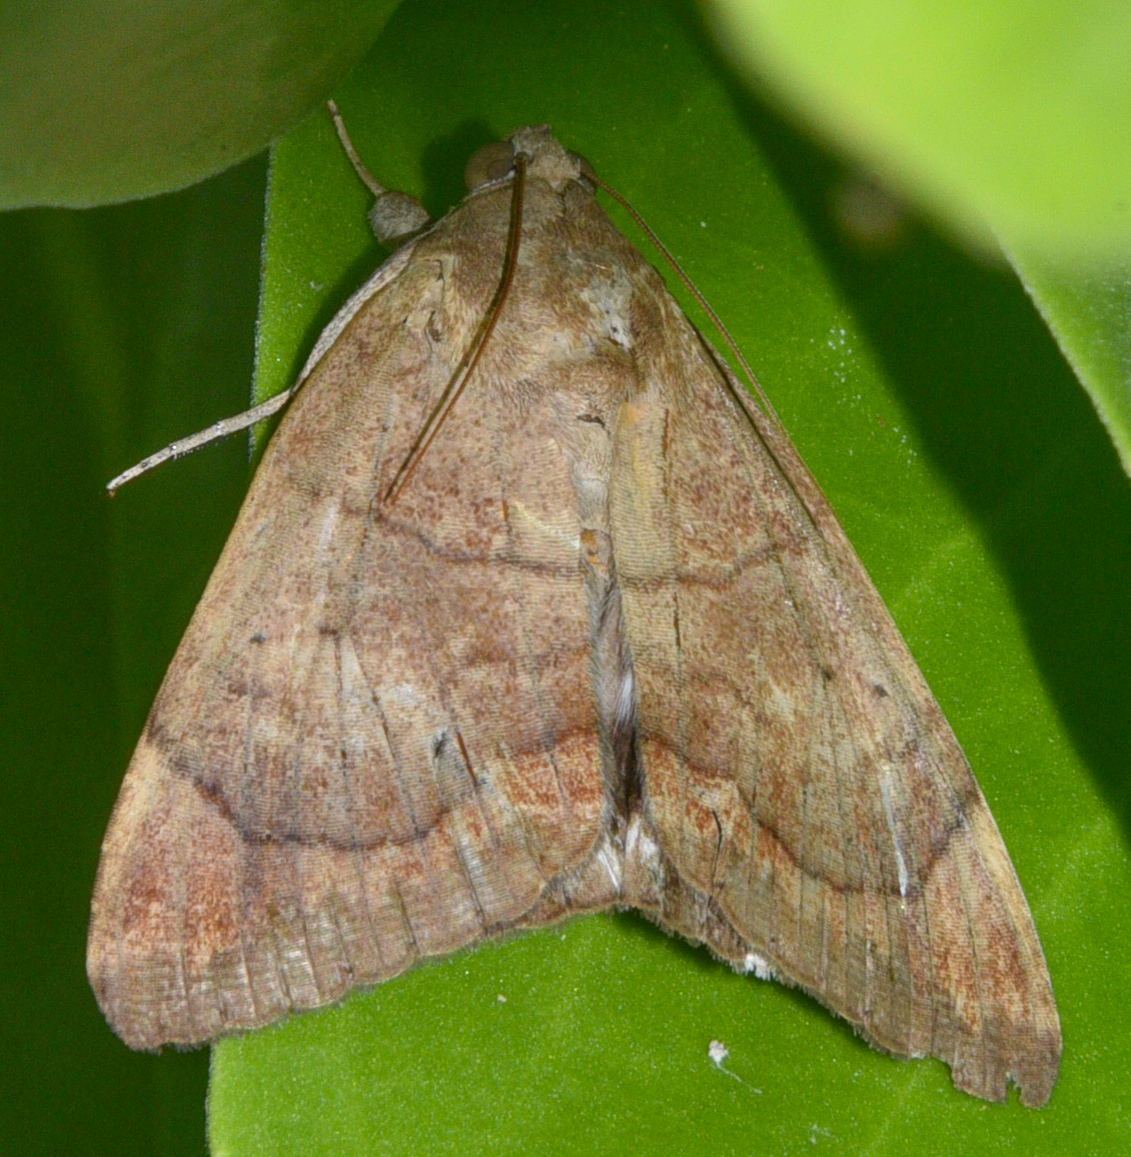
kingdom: Animalia
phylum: Arthropoda
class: Insecta
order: Lepidoptera
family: Erebidae
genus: Achaea
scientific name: Achaea janata
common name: Croton caterpillar
